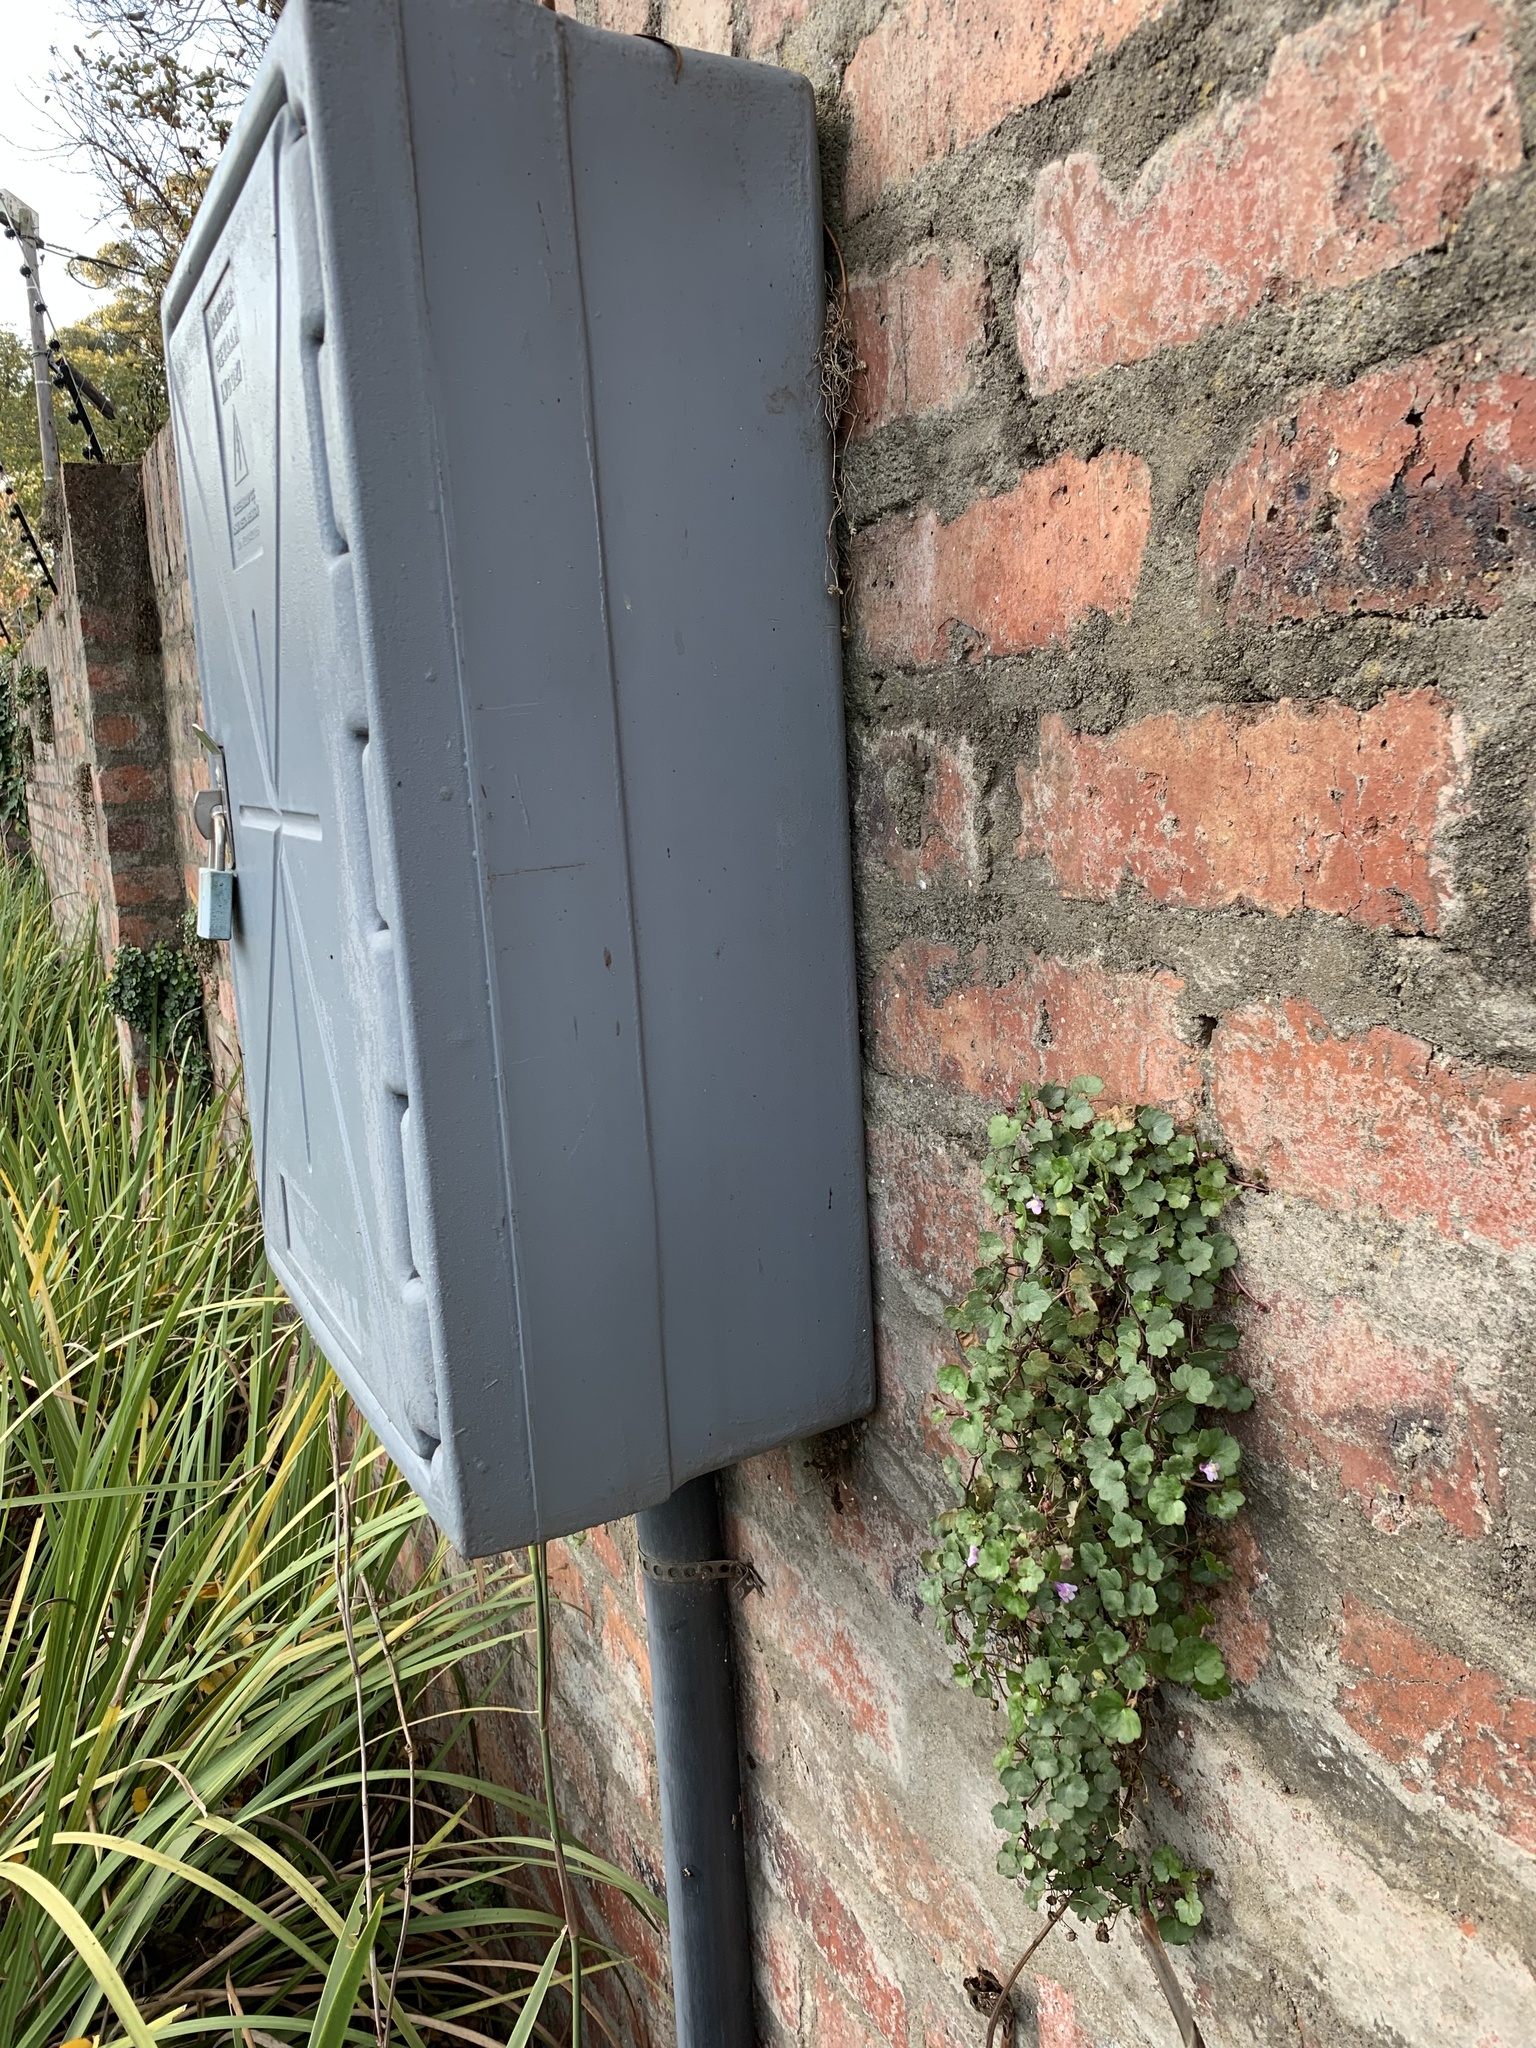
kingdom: Plantae
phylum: Tracheophyta
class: Magnoliopsida
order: Lamiales
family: Plantaginaceae
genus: Cymbalaria
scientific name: Cymbalaria muralis
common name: Ivy-leaved toadflax
